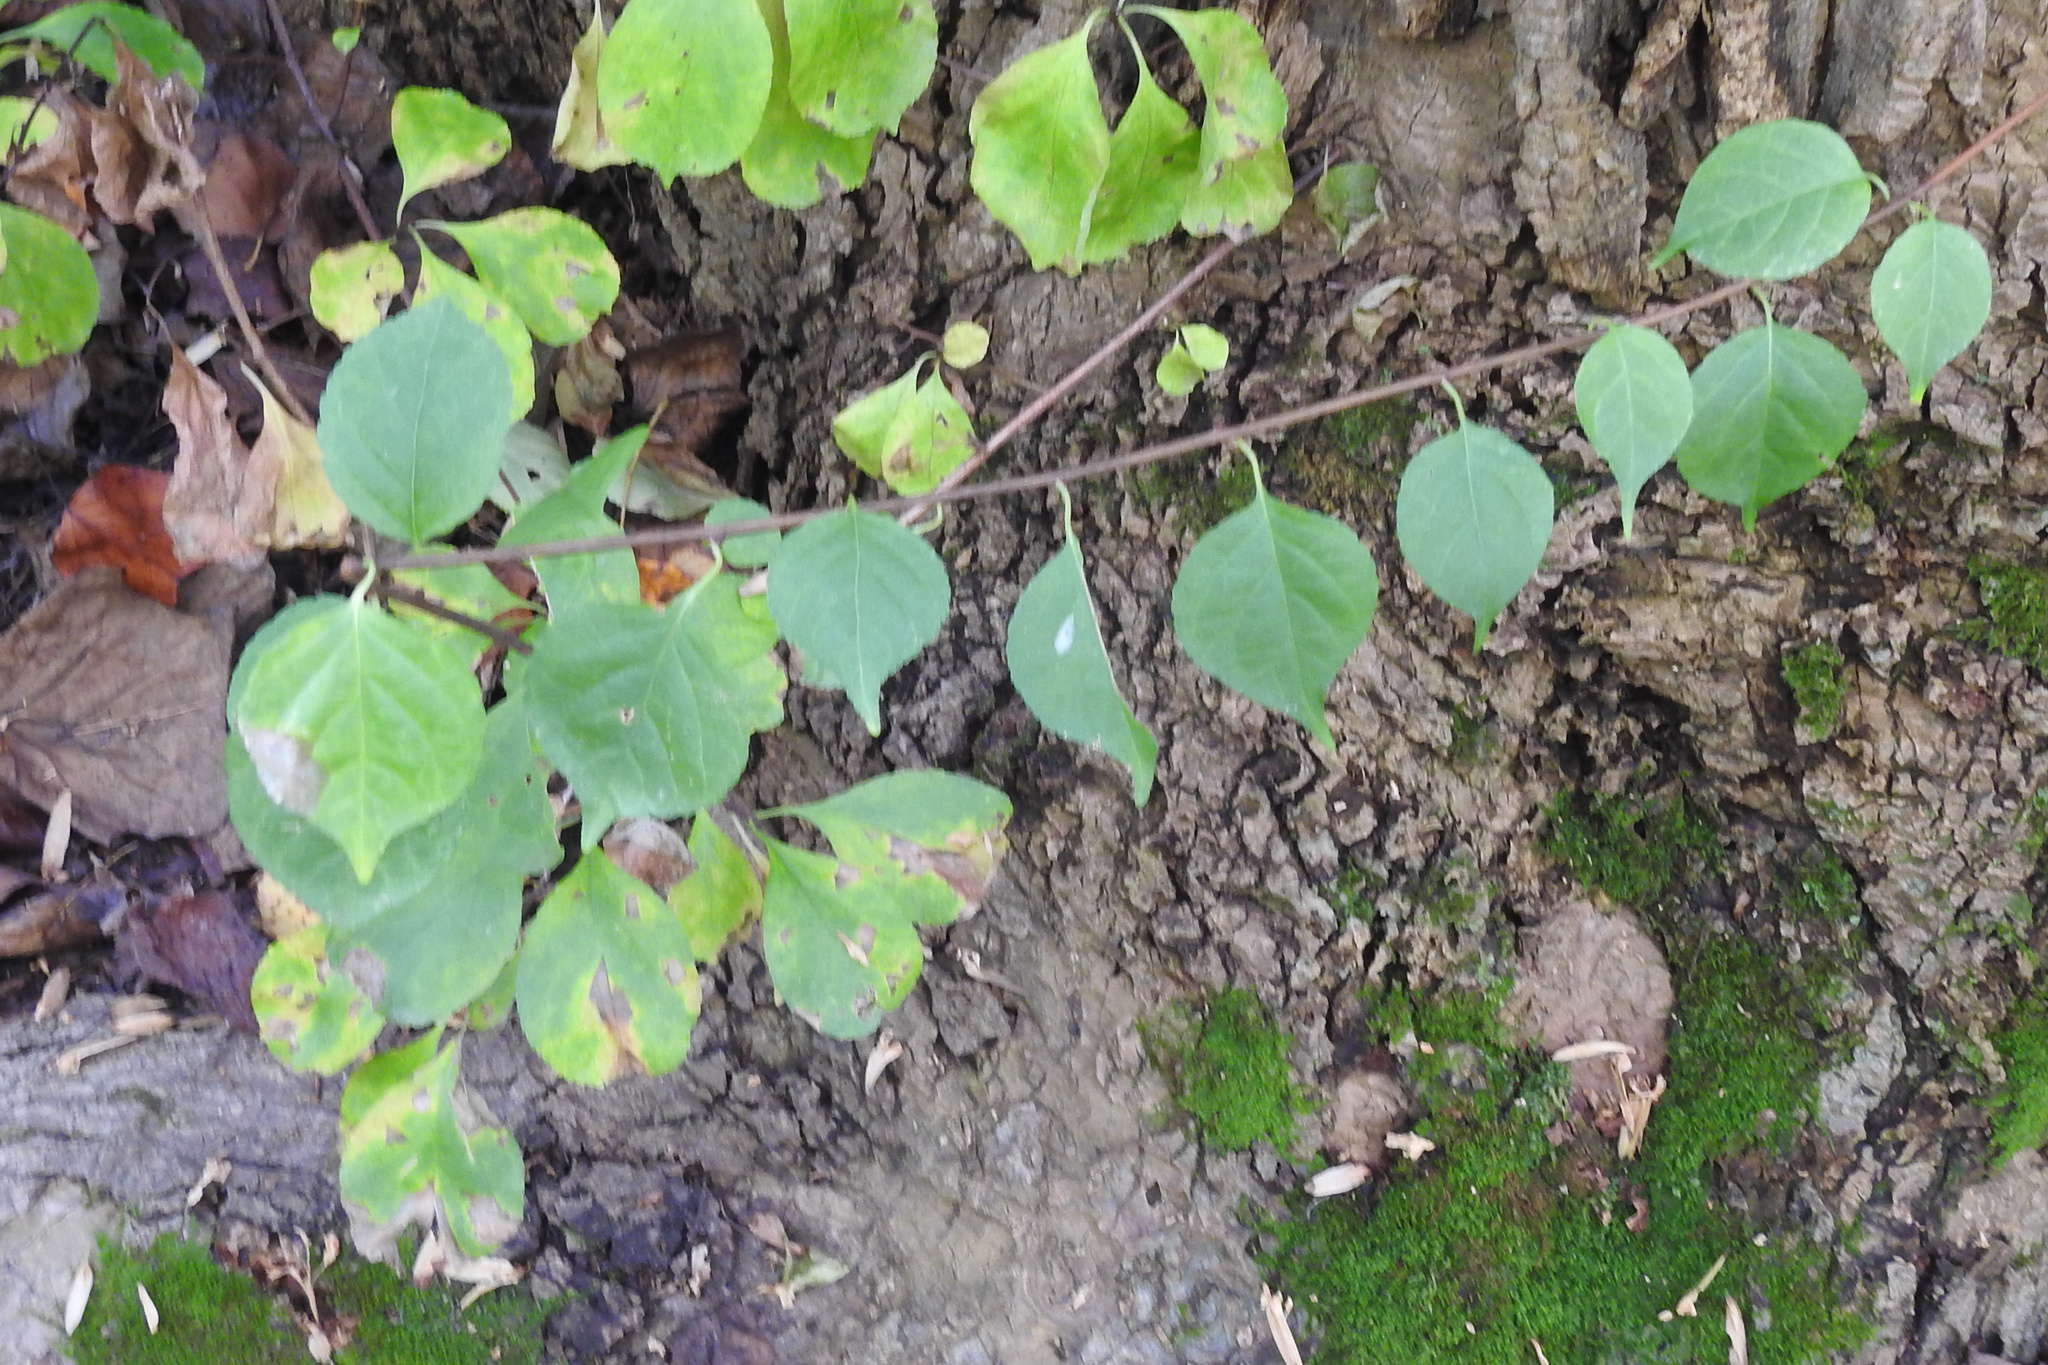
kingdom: Plantae
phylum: Tracheophyta
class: Magnoliopsida
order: Celastrales
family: Celastraceae
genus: Celastrus
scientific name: Celastrus orbiculatus
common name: Oriental bittersweet
